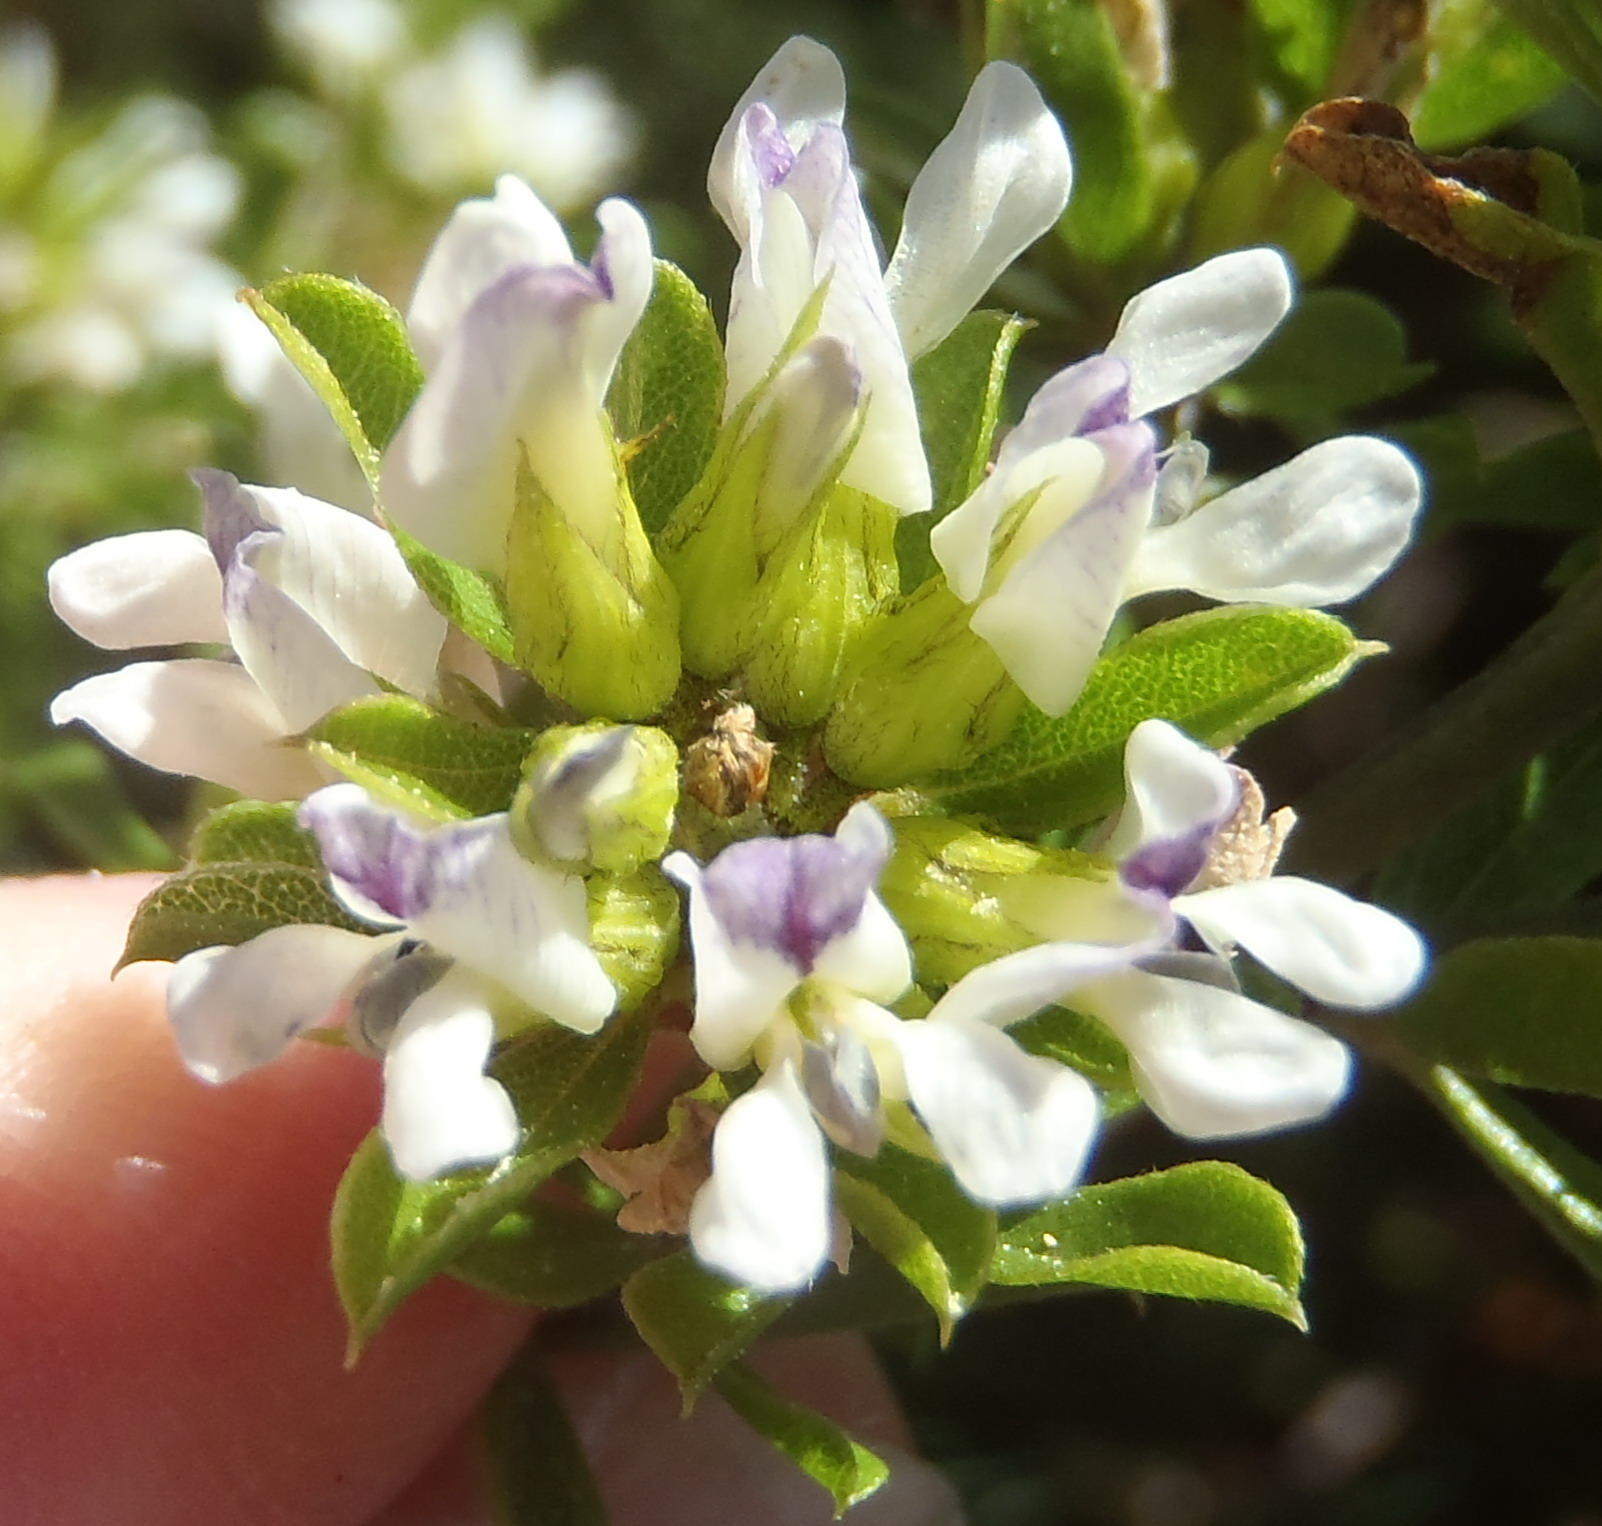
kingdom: Plantae
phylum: Tracheophyta
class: Magnoliopsida
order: Fabales
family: Fabaceae
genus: Psoralea
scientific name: Psoralea prodiens
